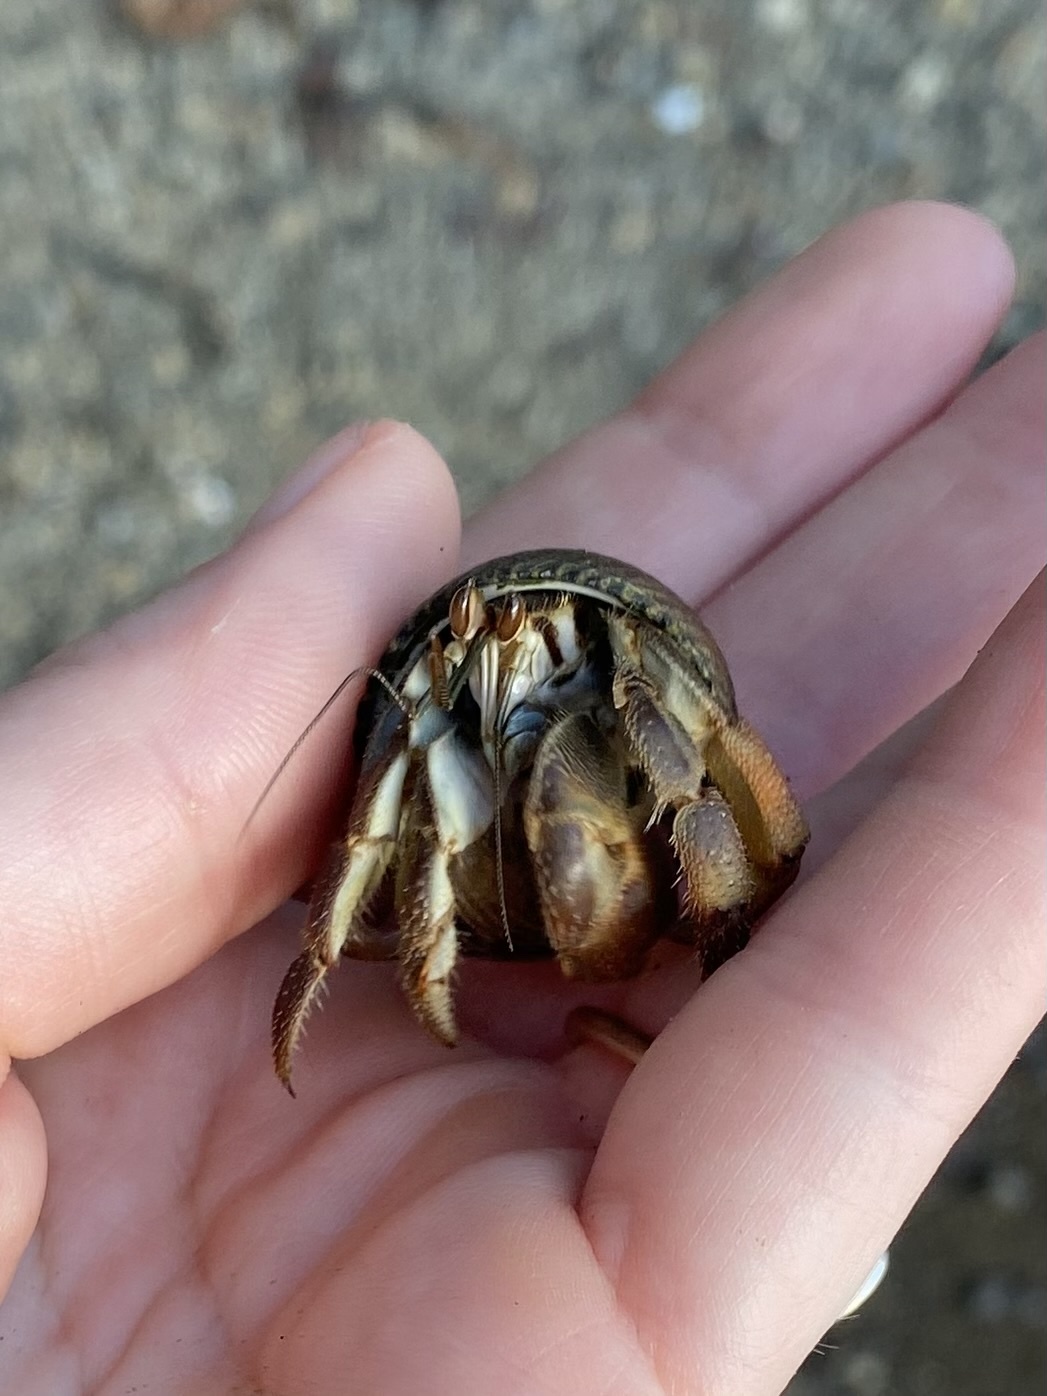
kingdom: Animalia
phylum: Arthropoda
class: Malacostraca
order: Decapoda
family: Coenobitidae
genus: Coenobita
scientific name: Coenobita compressus
